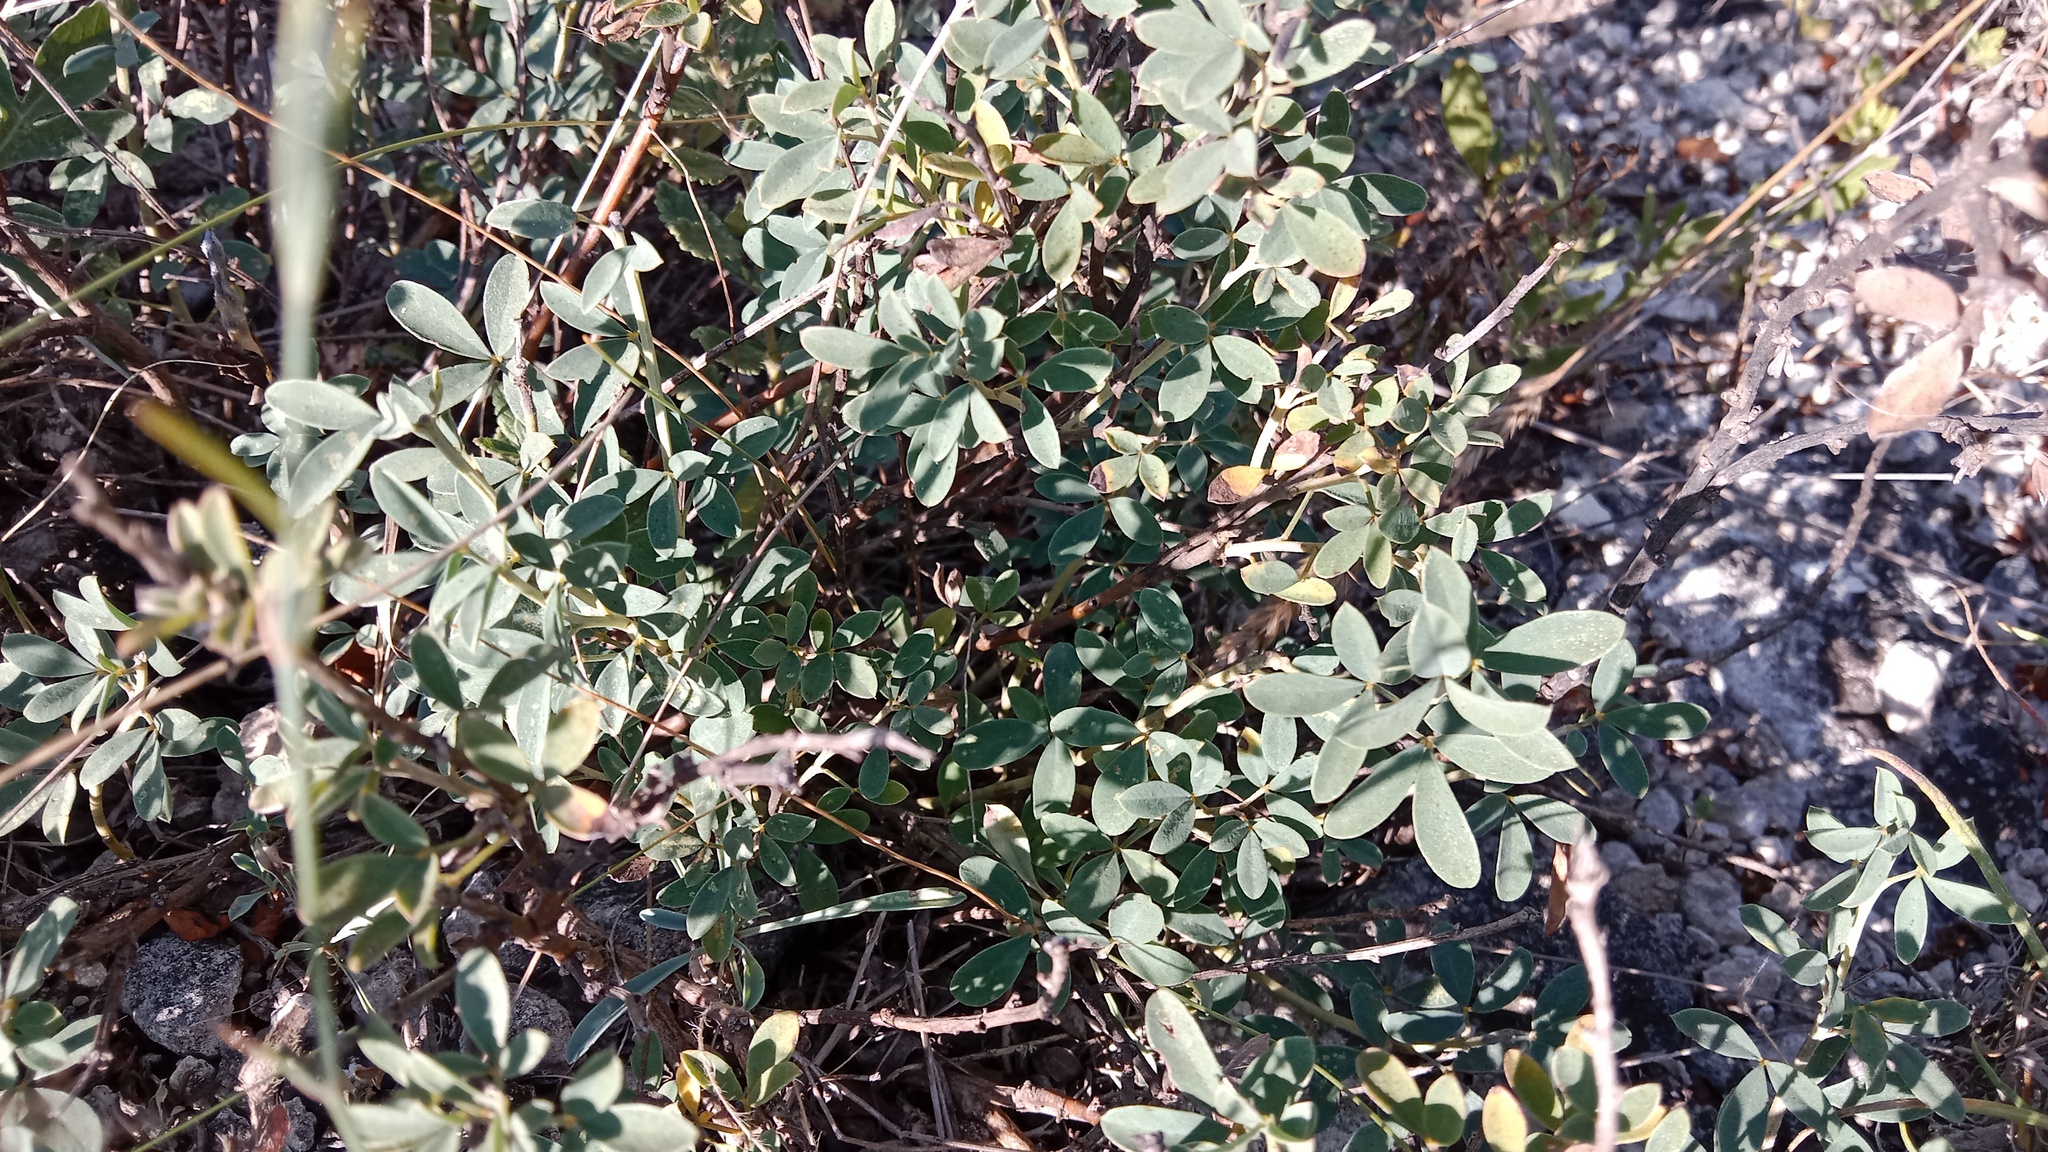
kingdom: Plantae
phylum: Tracheophyta
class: Magnoliopsida
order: Fabales
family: Fabaceae
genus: Chamaecytisus
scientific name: Chamaecytisus skrobiszewskii
